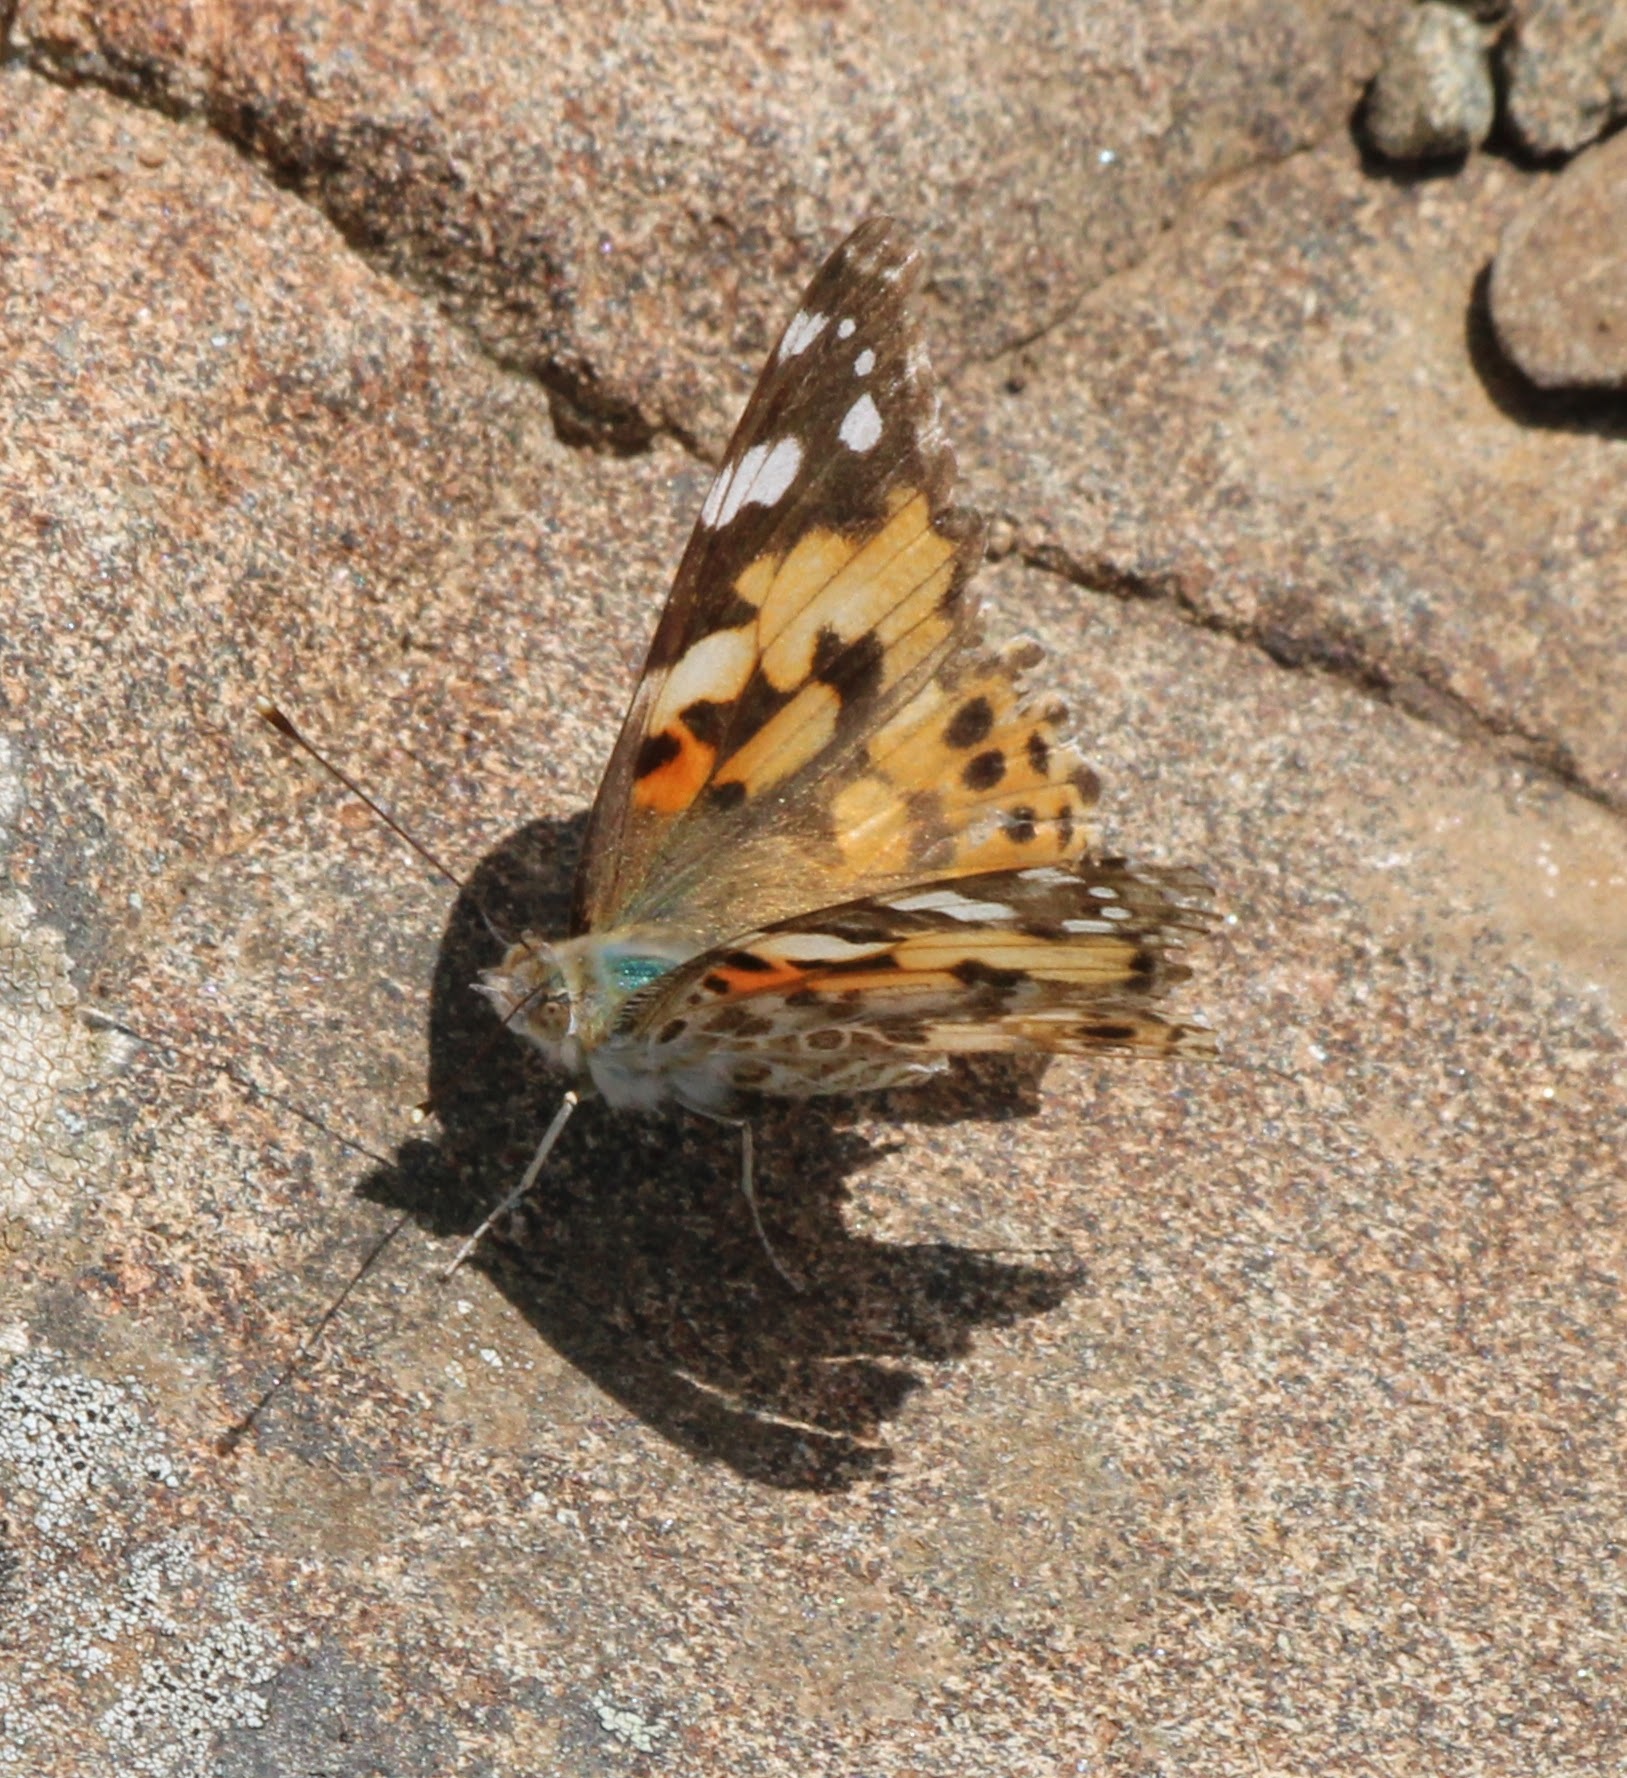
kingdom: Animalia
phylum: Arthropoda
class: Insecta
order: Lepidoptera
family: Nymphalidae
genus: Vanessa
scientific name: Vanessa cardui
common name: Painted lady
